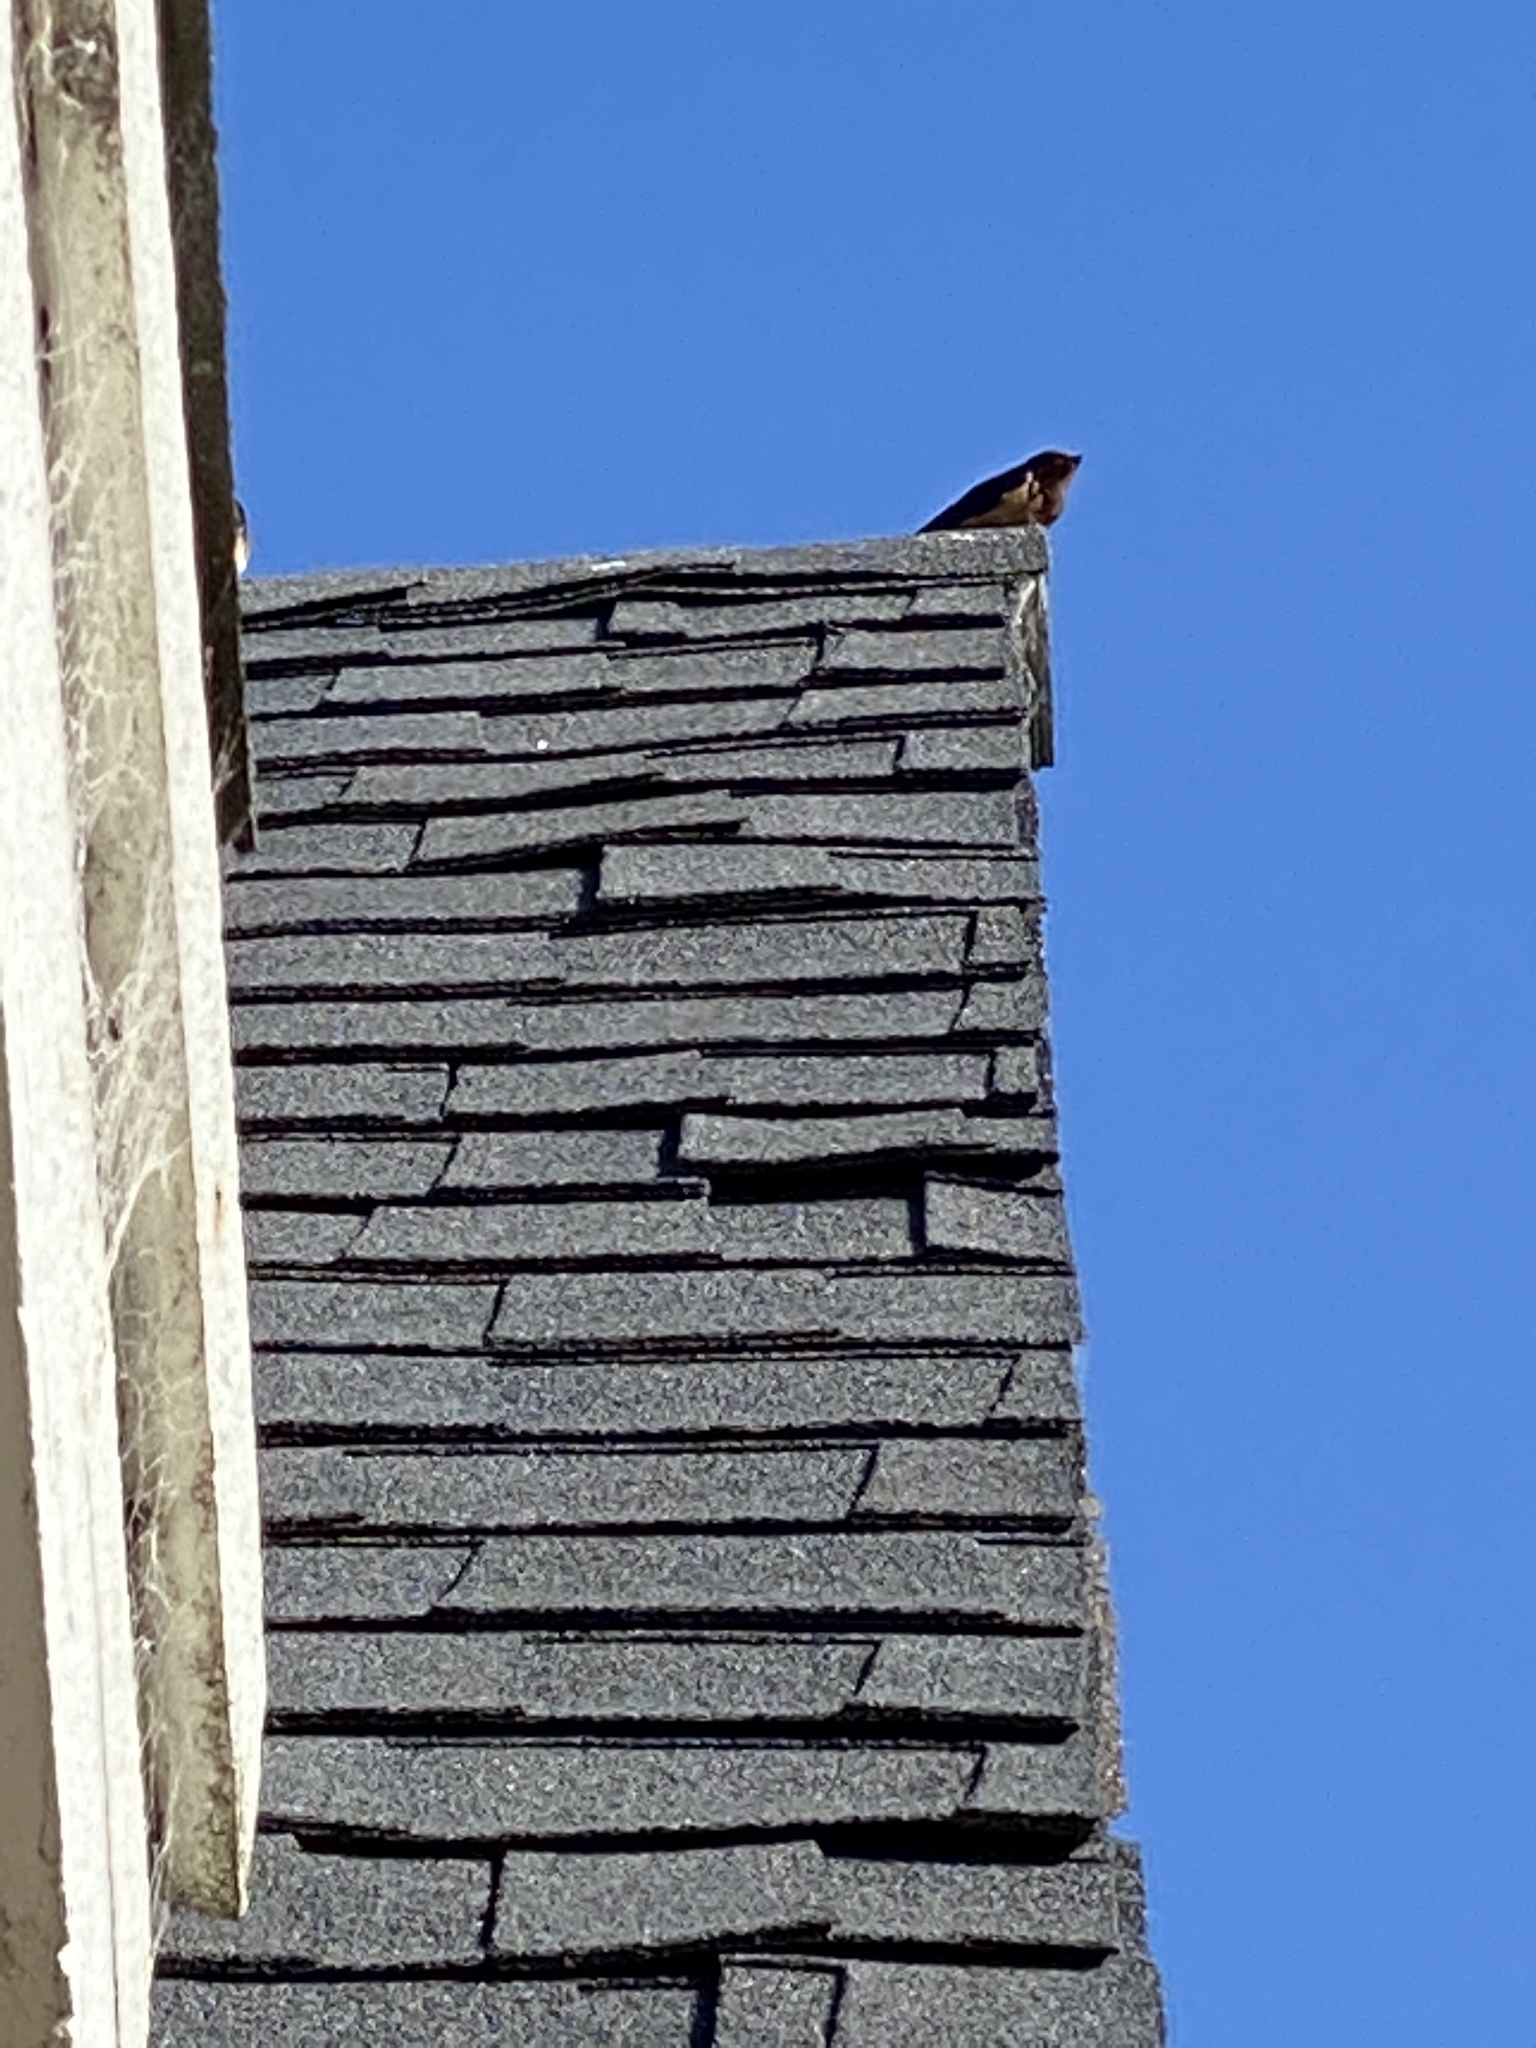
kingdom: Animalia
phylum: Chordata
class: Aves
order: Passeriformes
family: Hirundinidae
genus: Hirundo
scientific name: Hirundo rustica
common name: Barn swallow
